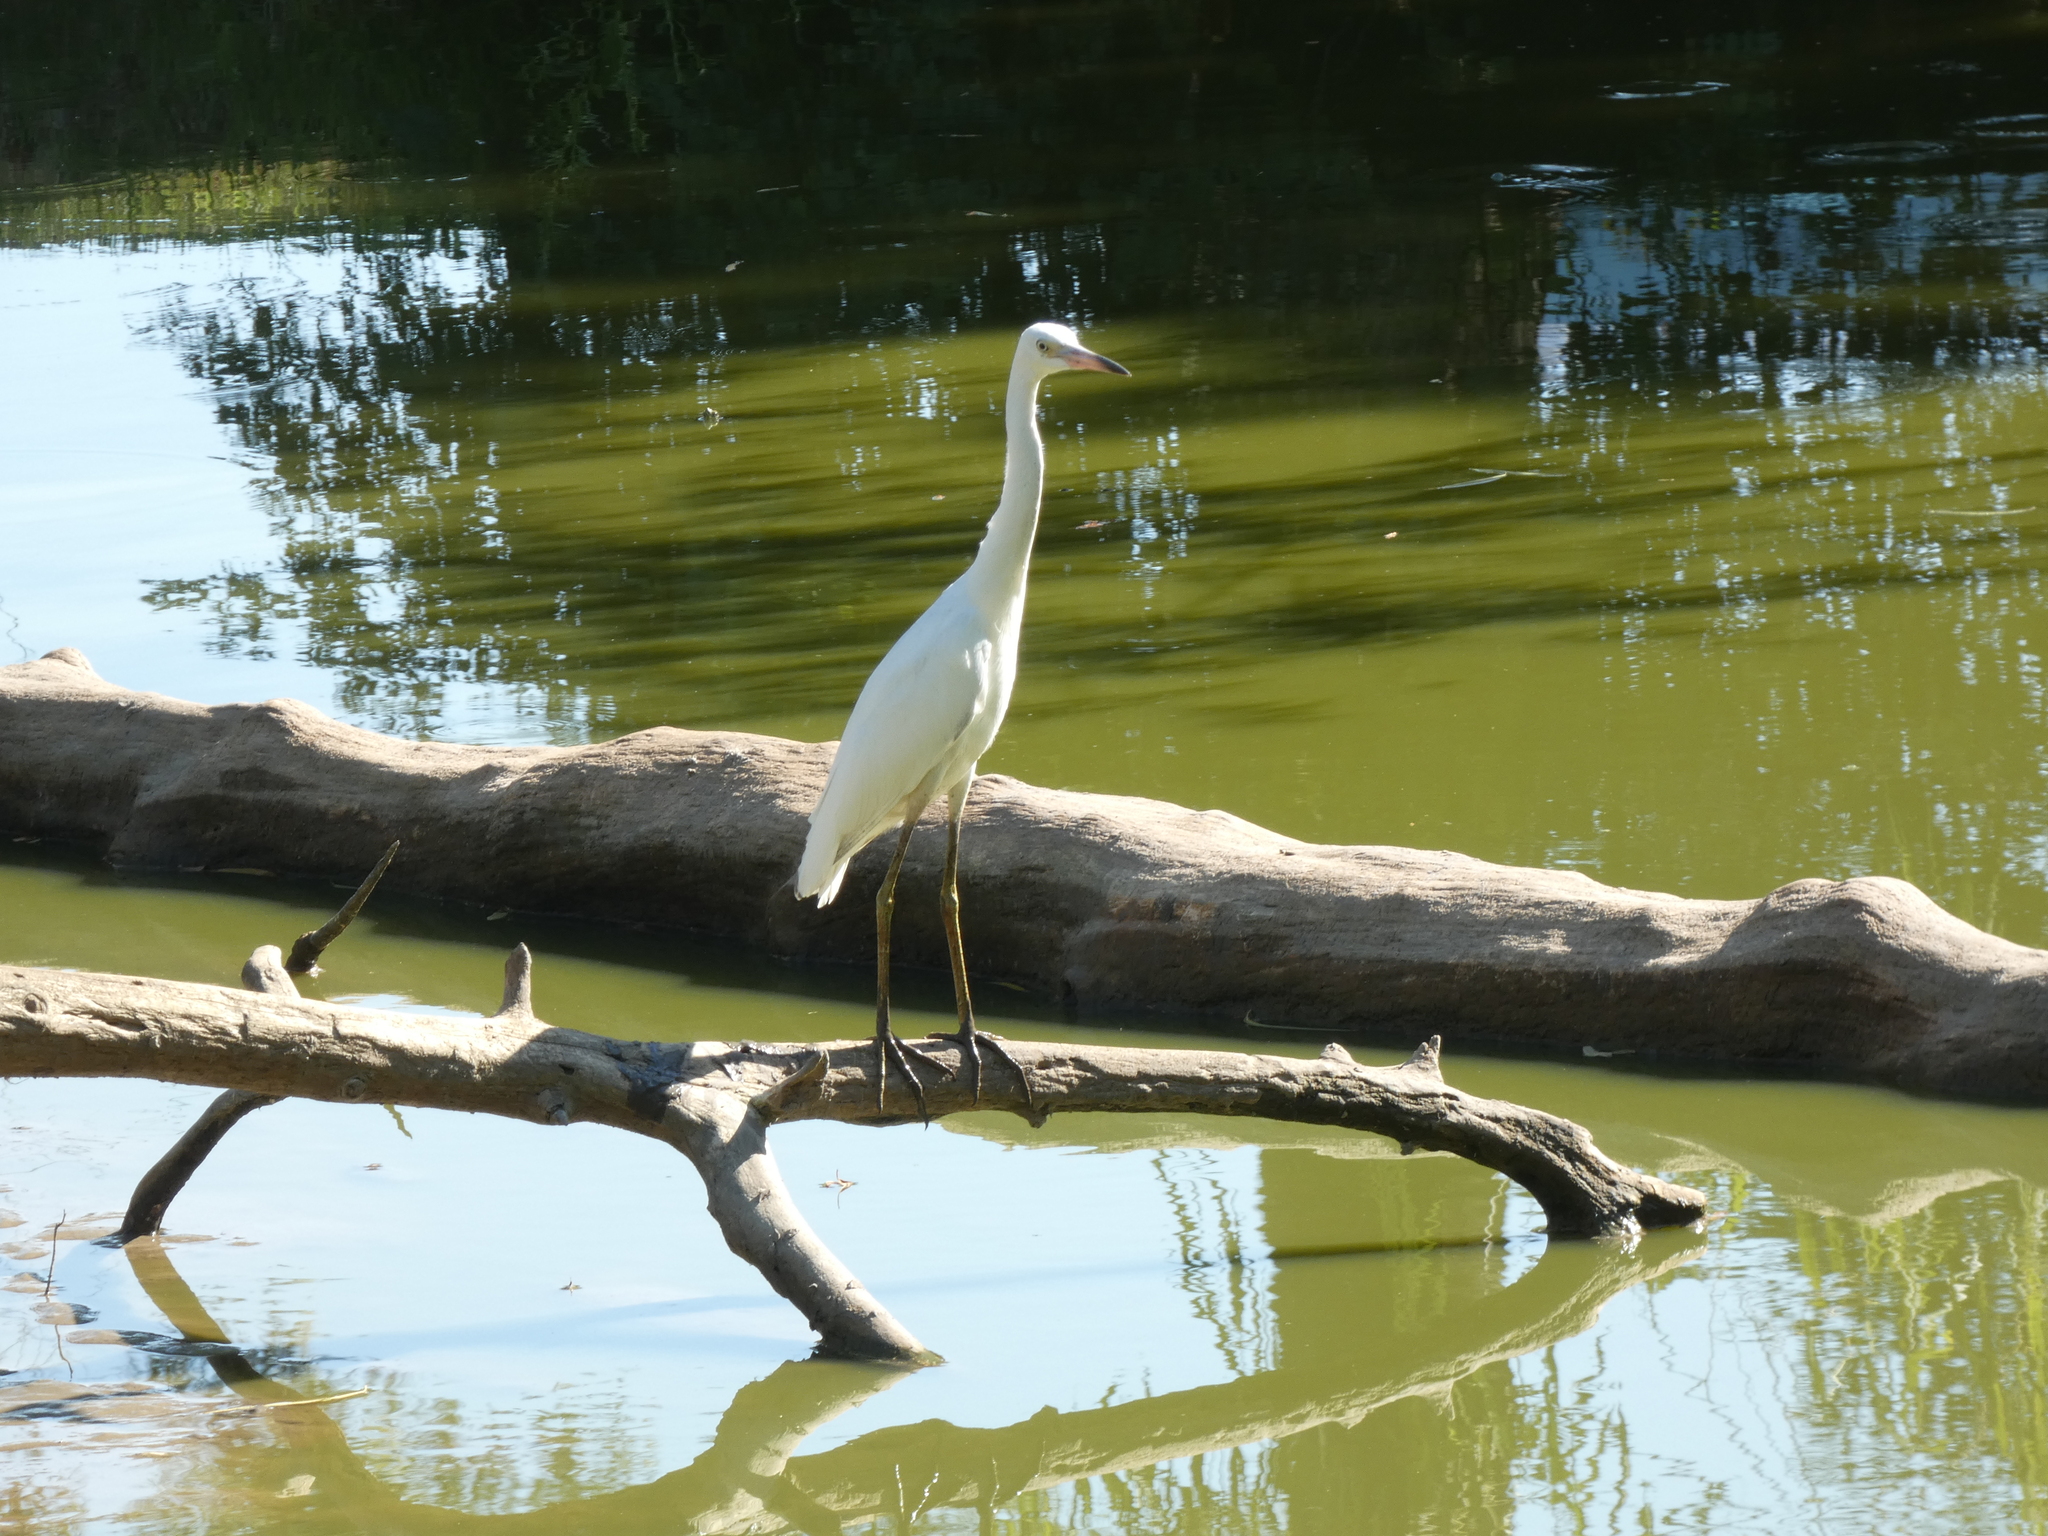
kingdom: Animalia
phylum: Chordata
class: Aves
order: Pelecaniformes
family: Ardeidae
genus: Egretta
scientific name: Egretta caerulea
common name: Little blue heron
